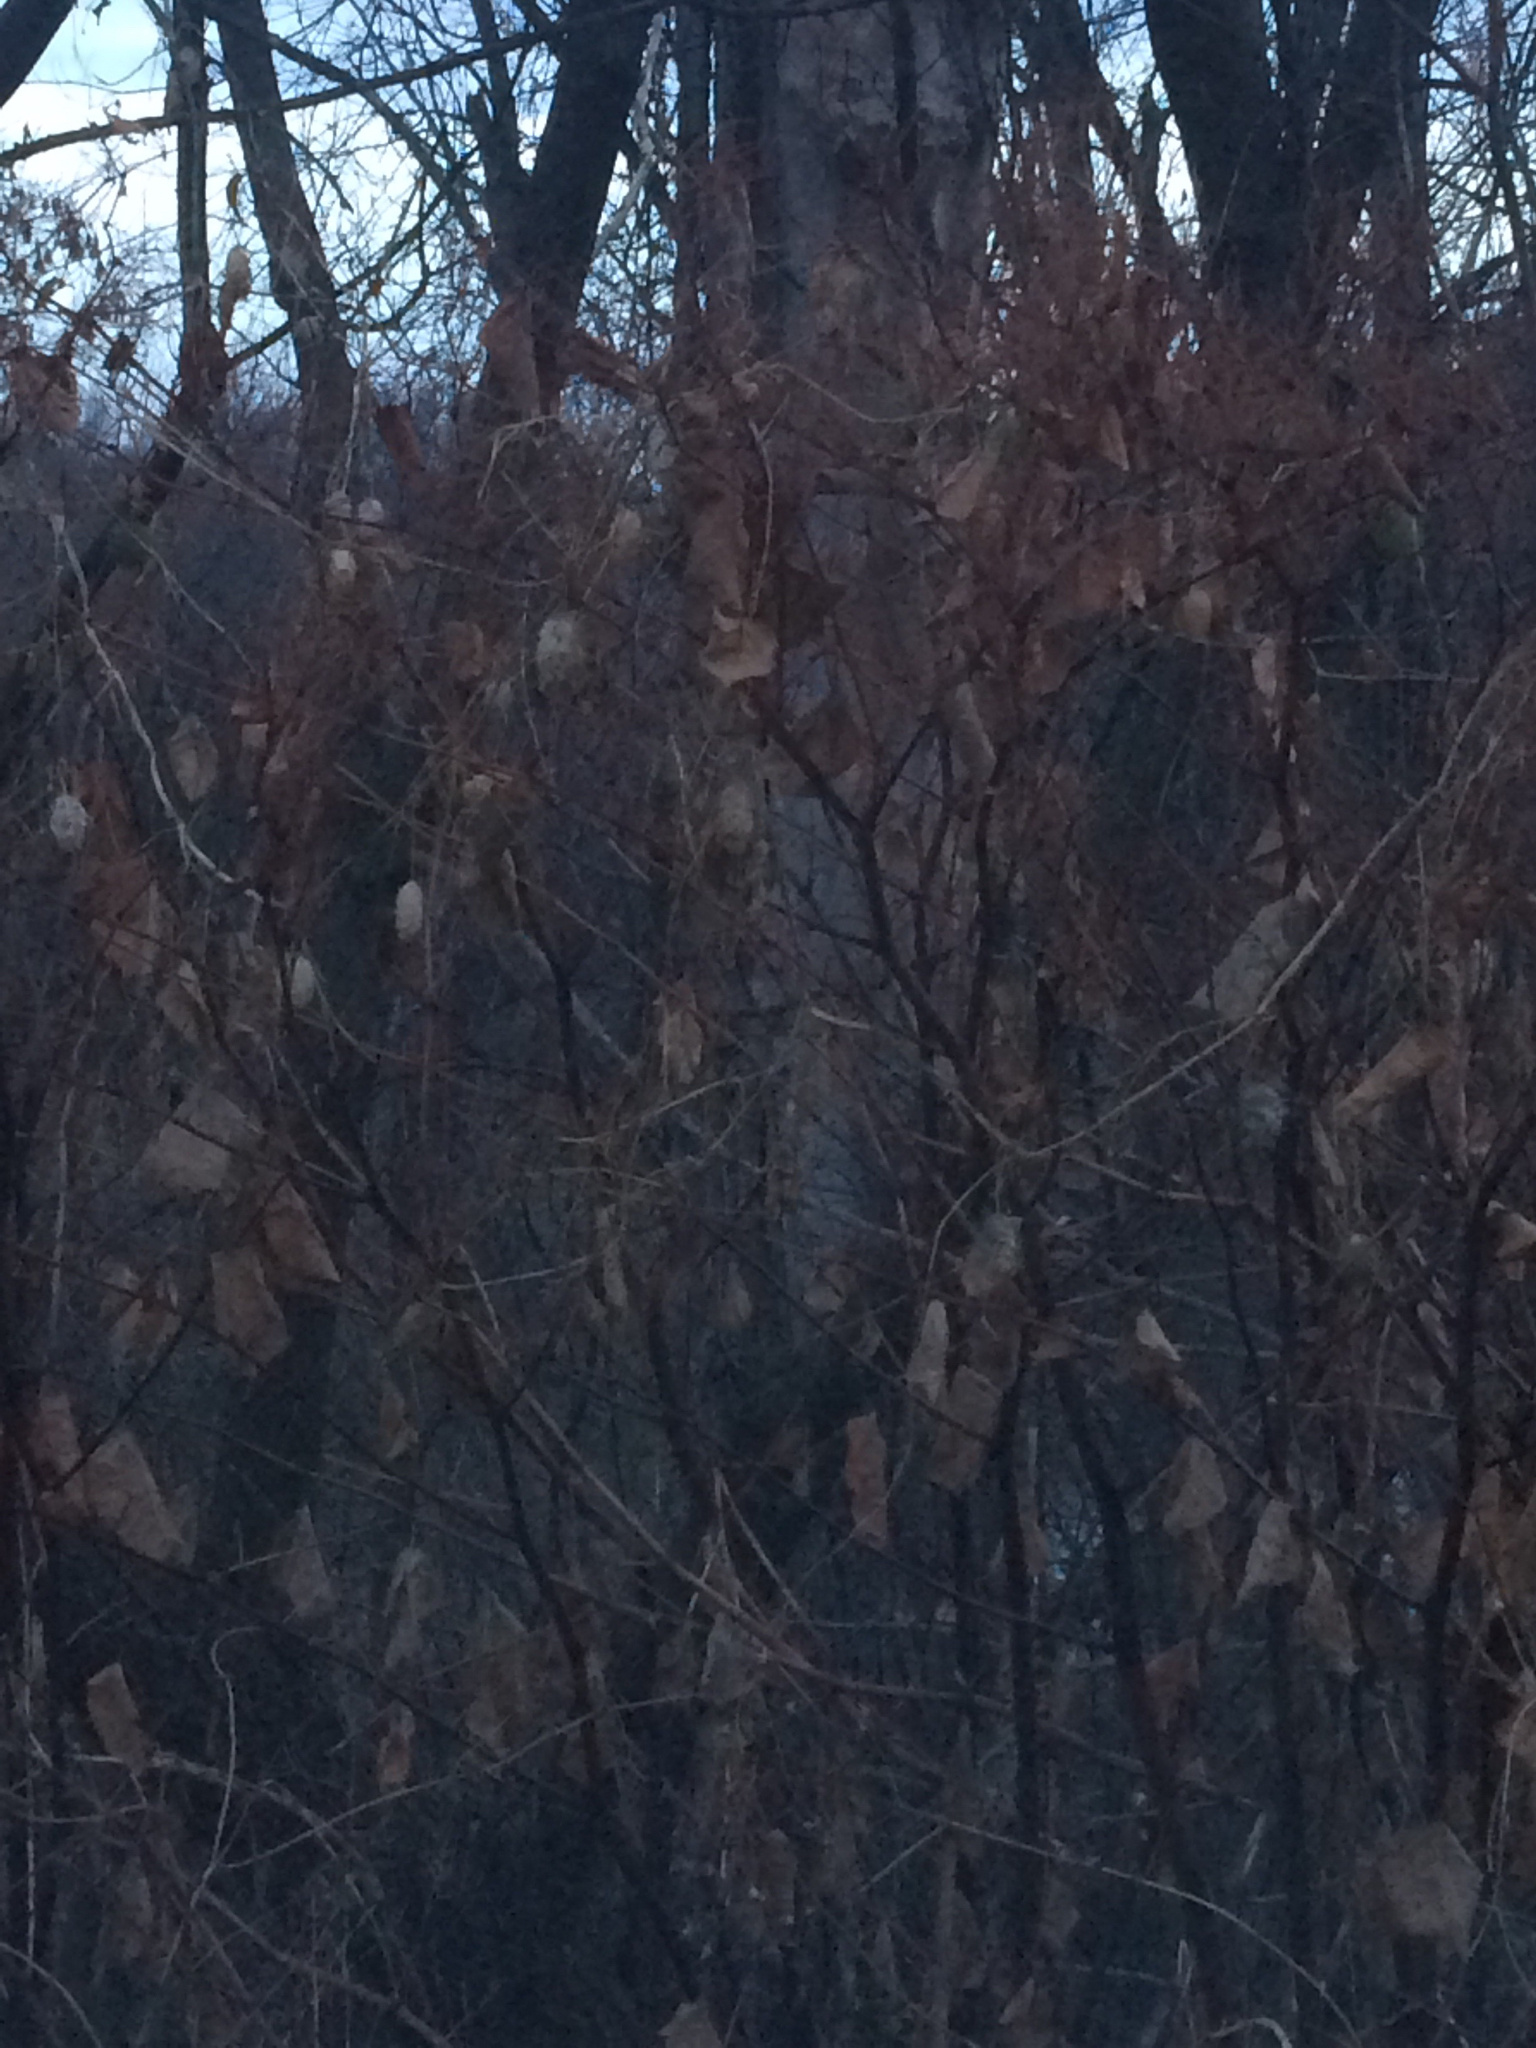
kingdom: Plantae
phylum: Tracheophyta
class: Magnoliopsida
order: Caryophyllales
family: Polygonaceae
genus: Reynoutria
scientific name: Reynoutria japonica
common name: Japanese knotweed
